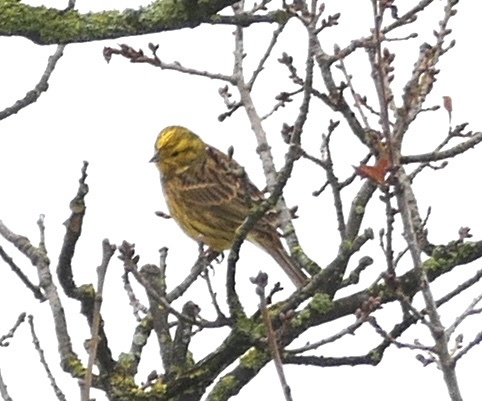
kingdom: Animalia
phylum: Chordata
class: Aves
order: Passeriformes
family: Emberizidae
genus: Emberiza
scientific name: Emberiza citrinella
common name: Yellowhammer
